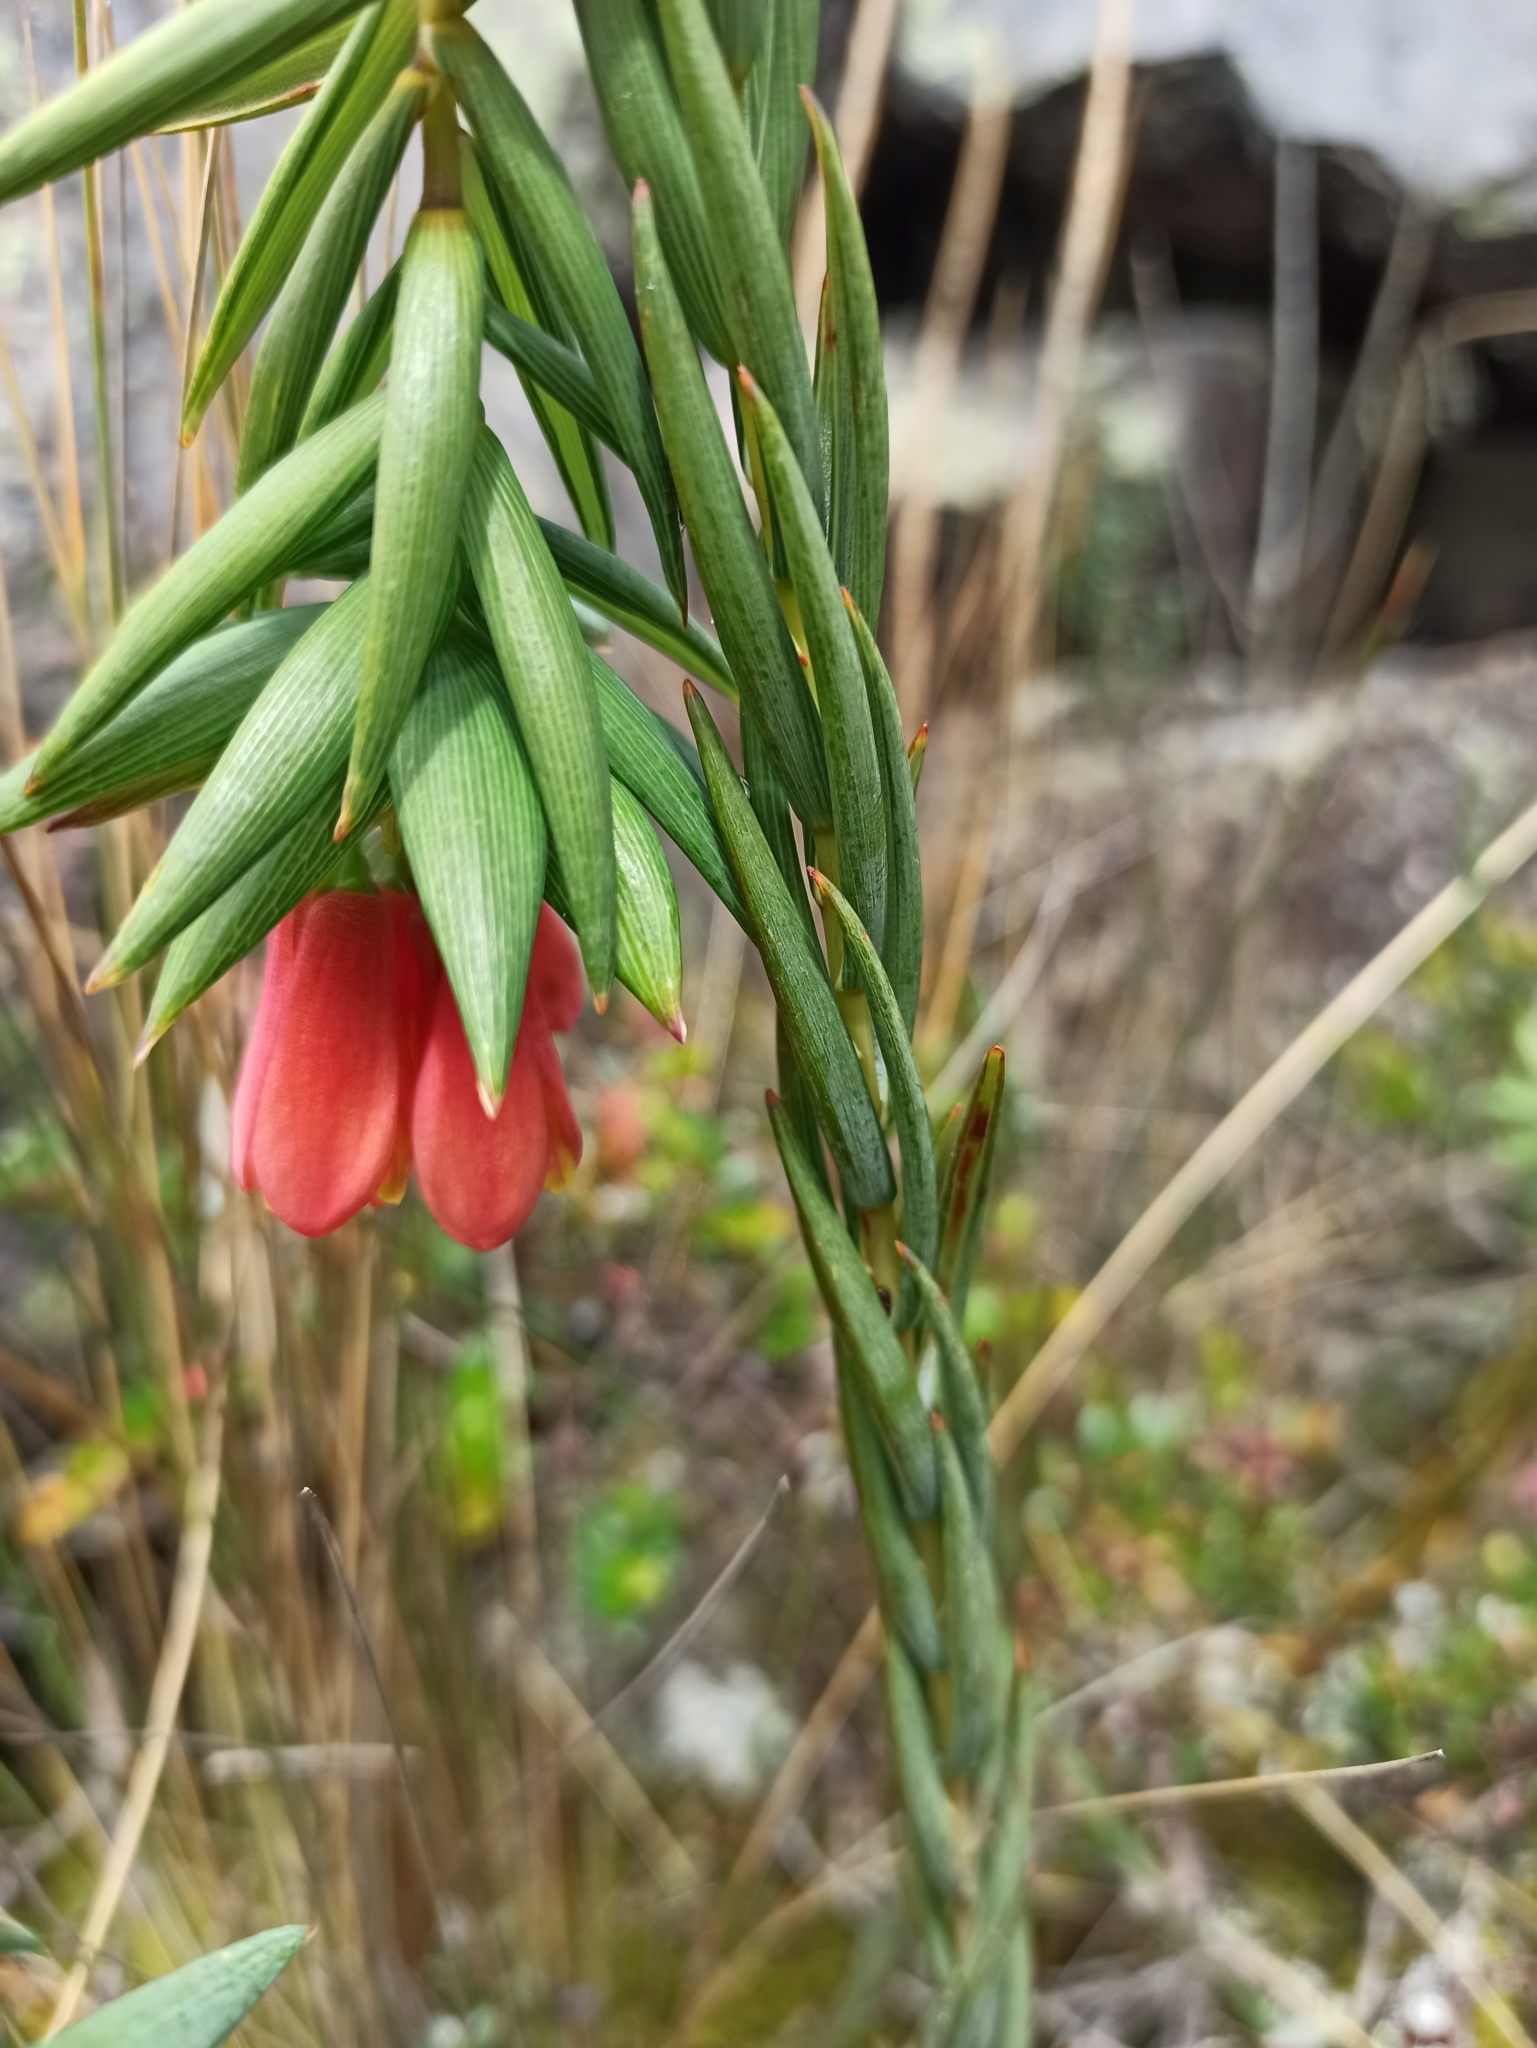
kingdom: Plantae
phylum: Tracheophyta
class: Liliopsida
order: Liliales
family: Alstroemeriaceae
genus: Bomarea
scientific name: Bomarea glaucescens
